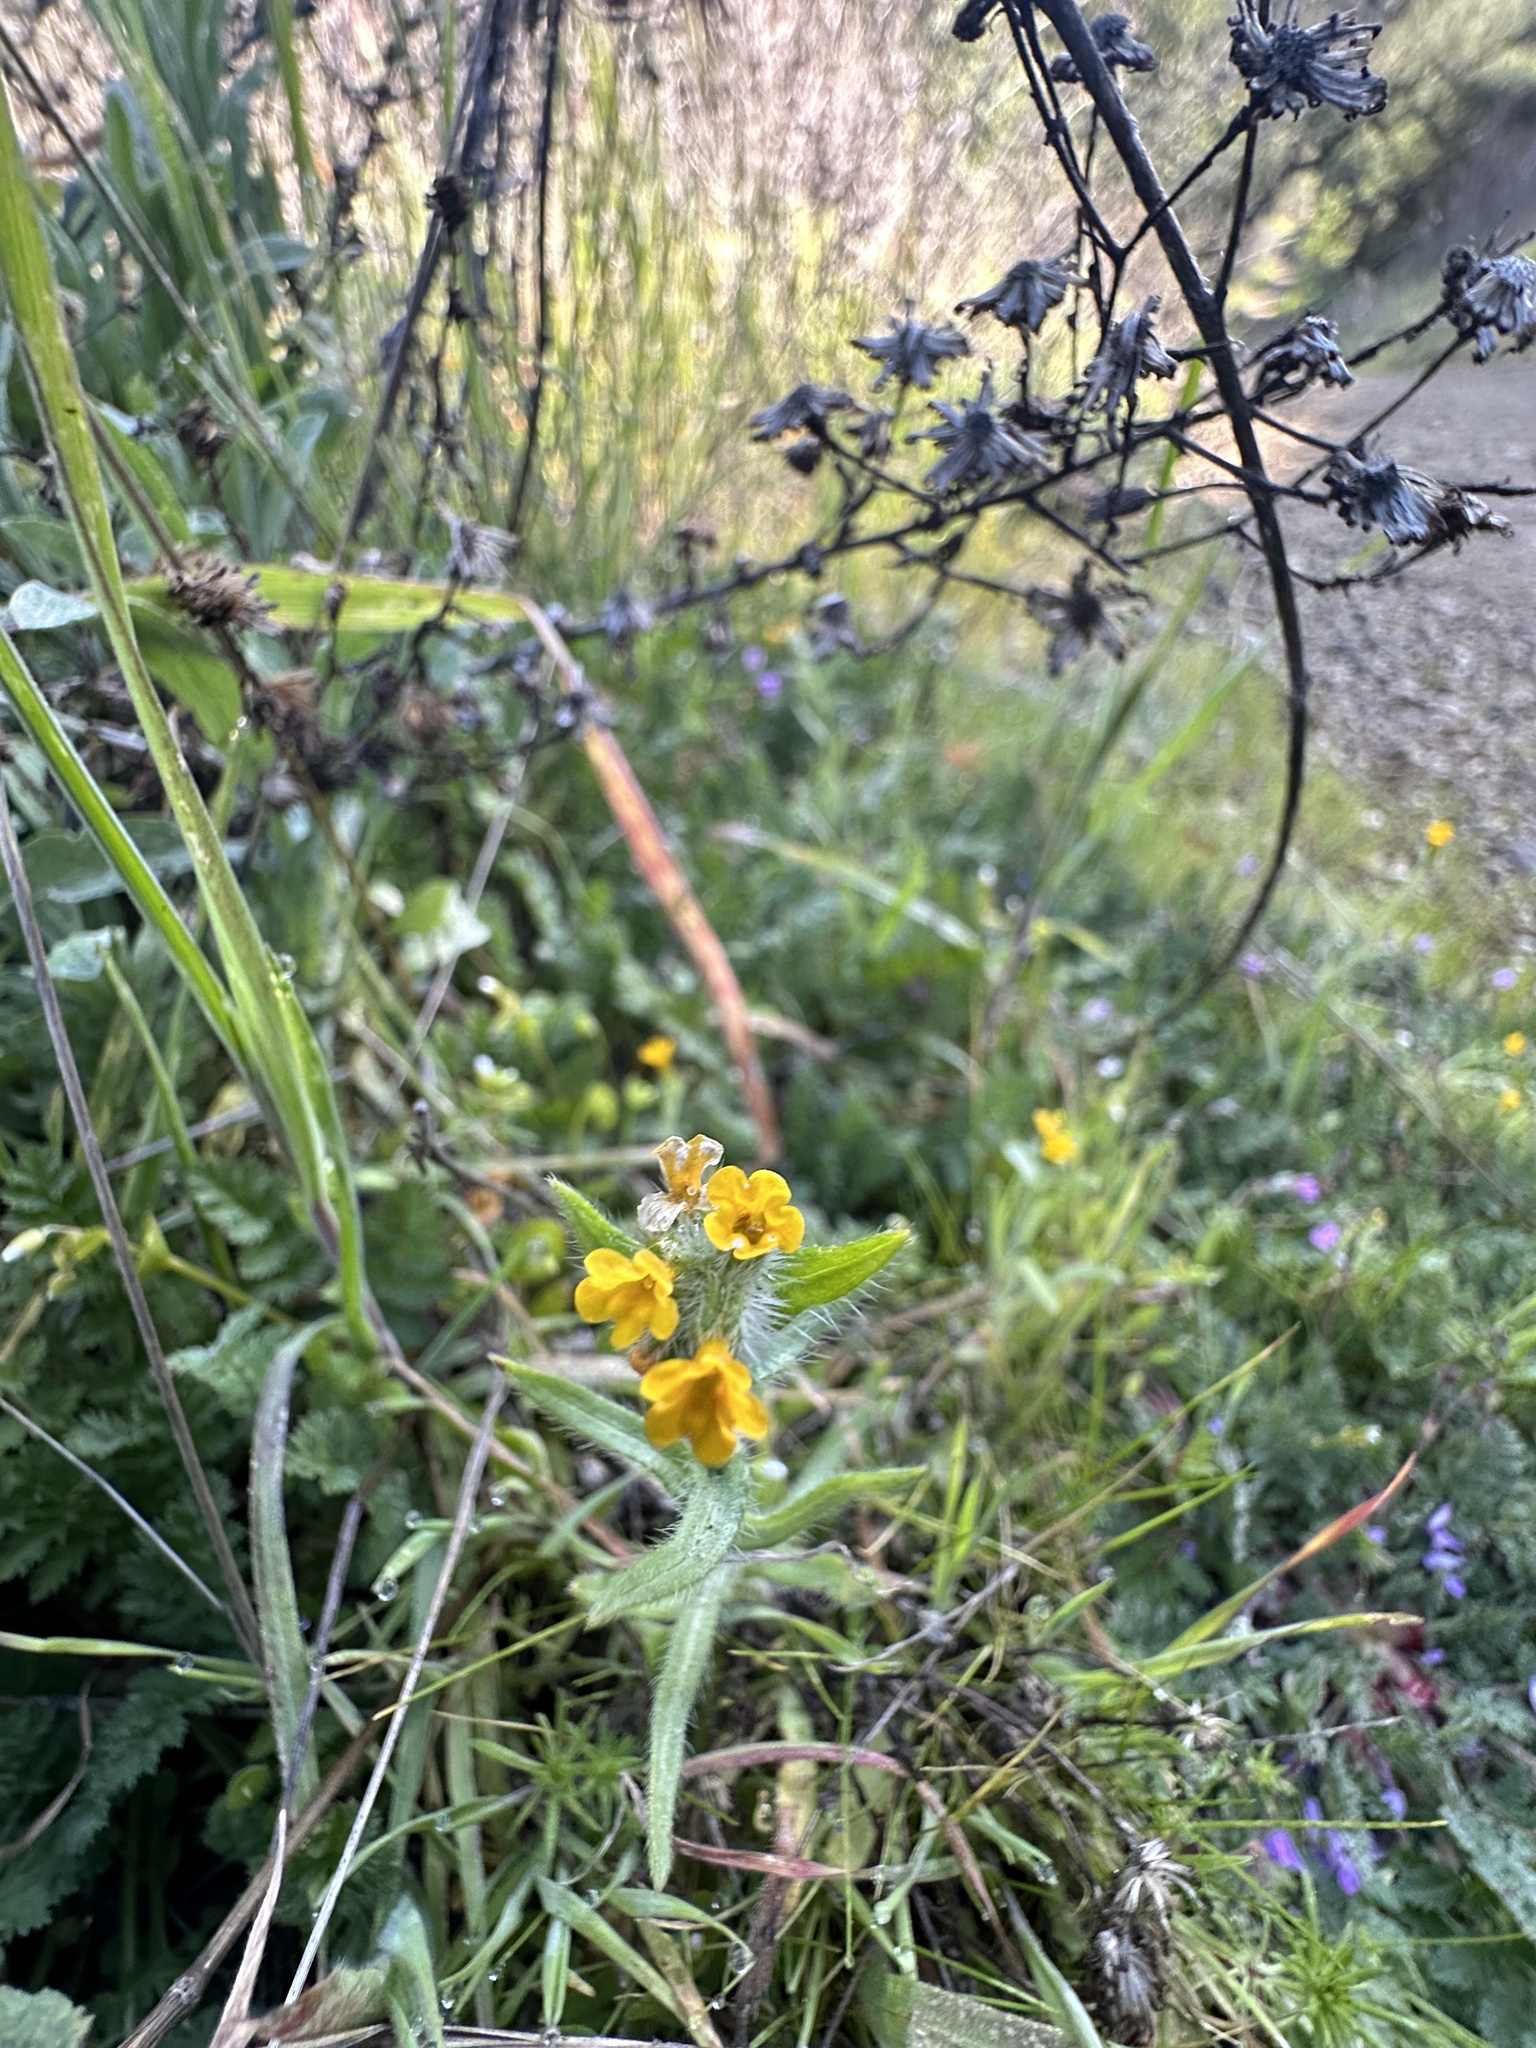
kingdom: Plantae
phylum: Tracheophyta
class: Magnoliopsida
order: Boraginales
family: Boraginaceae
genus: Amsinckia
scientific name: Amsinckia menziesii
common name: Menzies' fiddleneck
